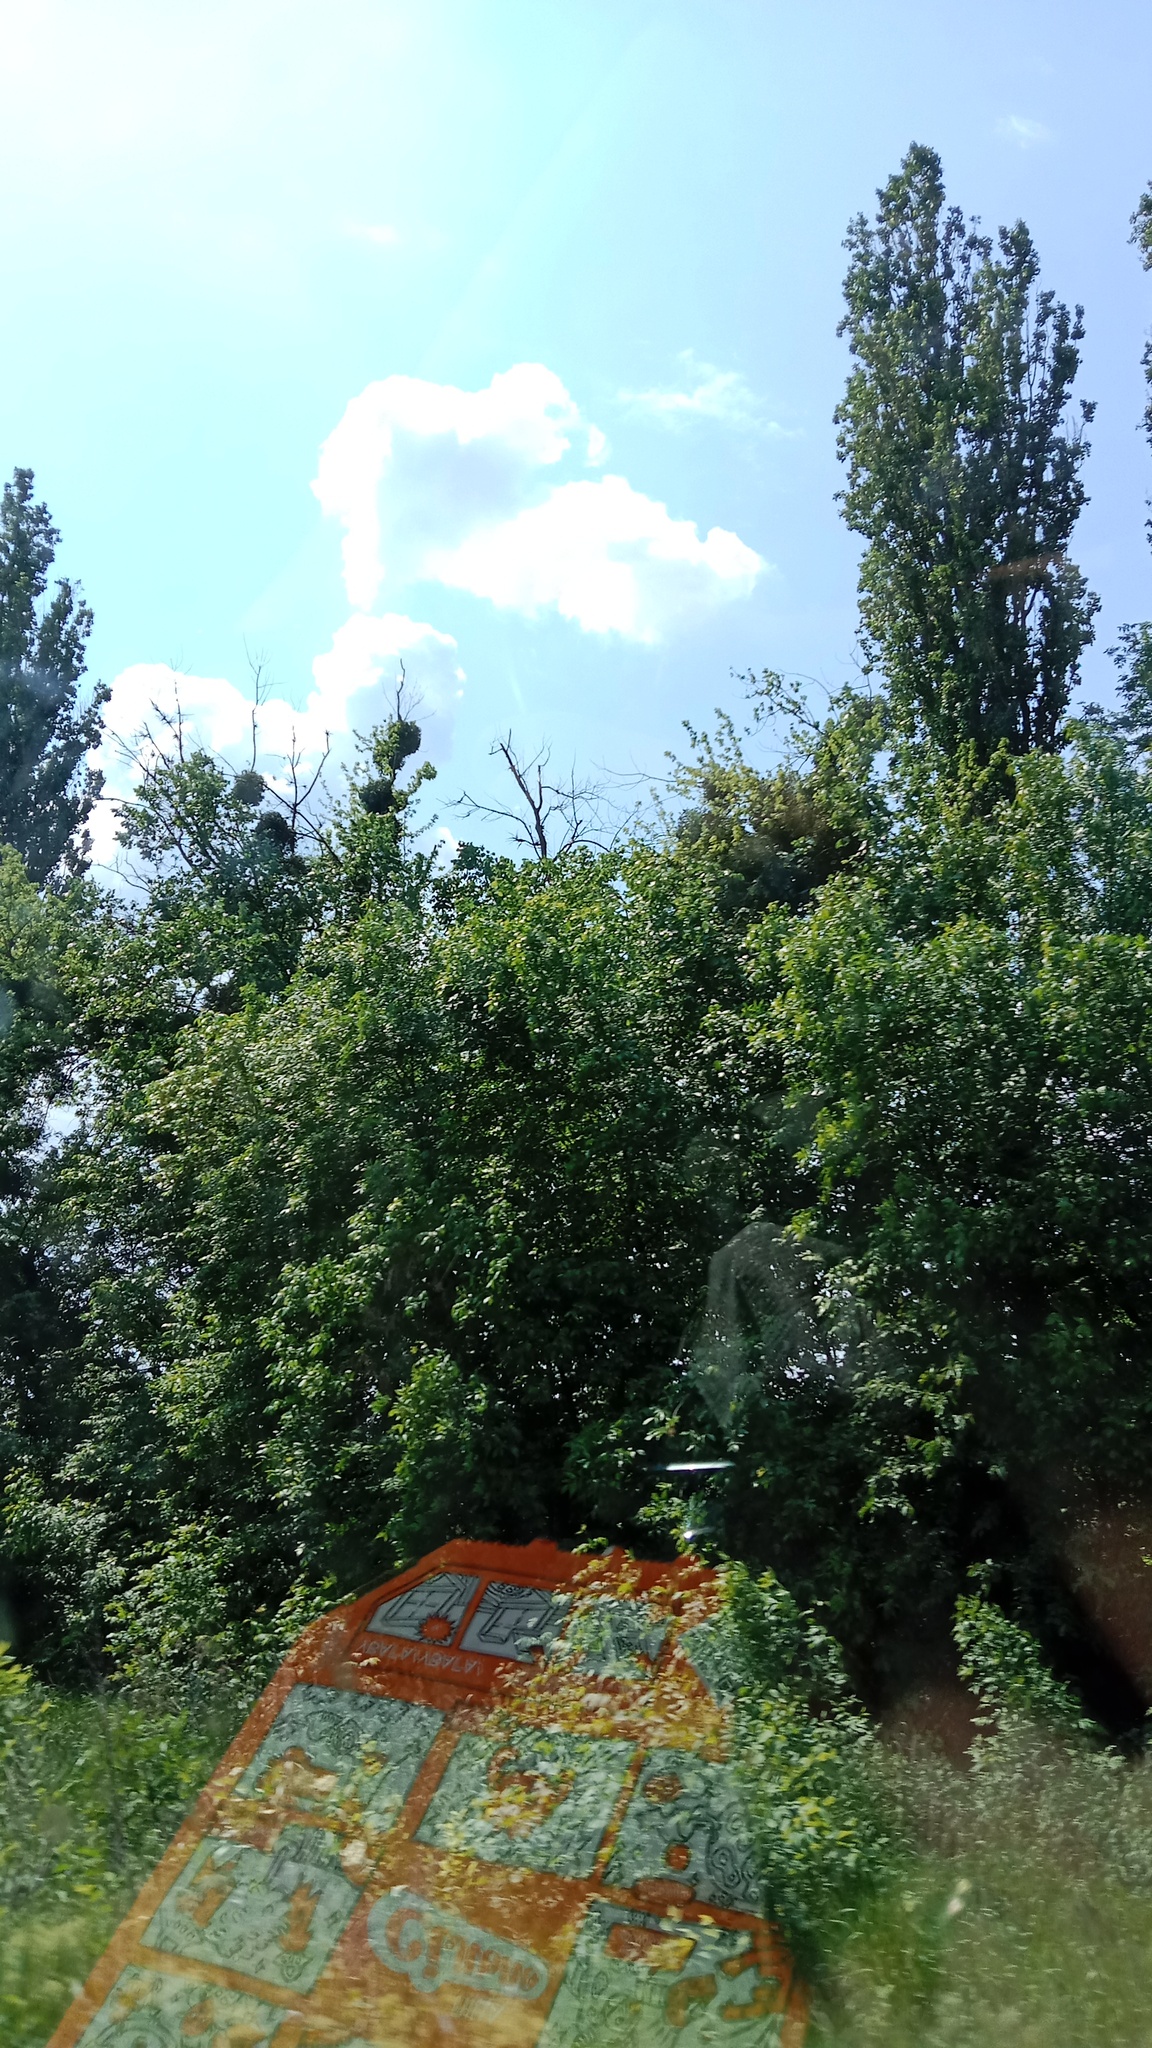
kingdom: Plantae
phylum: Tracheophyta
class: Magnoliopsida
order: Santalales
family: Viscaceae
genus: Viscum
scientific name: Viscum album
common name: Mistletoe
